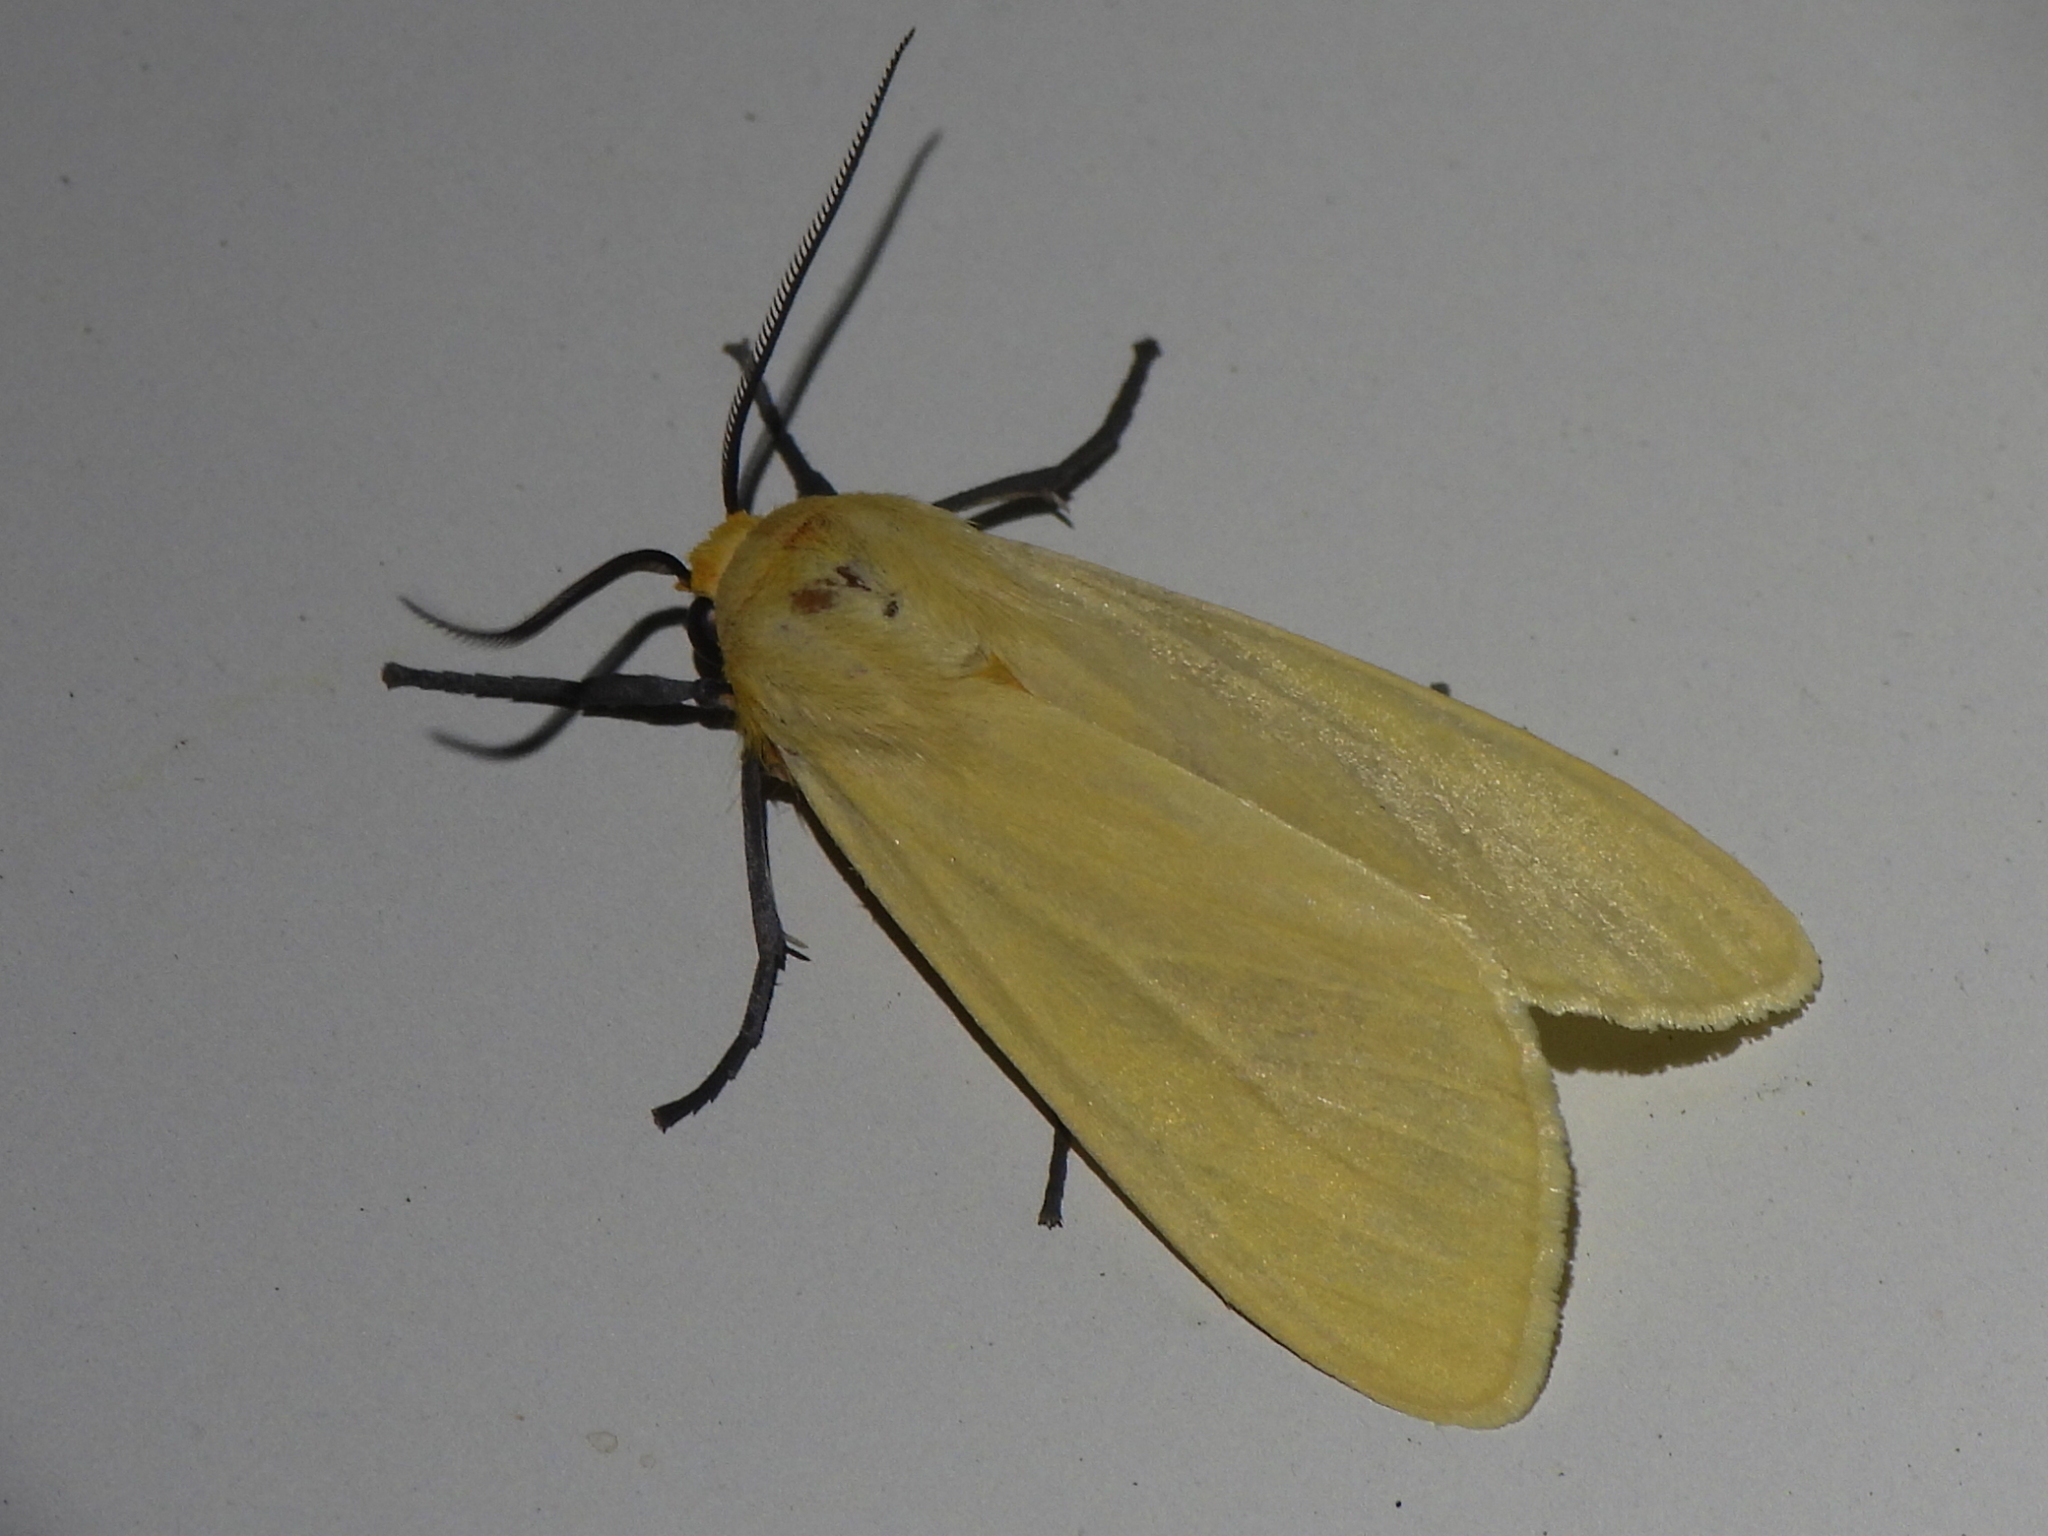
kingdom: Animalia
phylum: Arthropoda
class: Insecta
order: Lepidoptera
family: Erebidae
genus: Pareuchaetes
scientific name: Pareuchaetes insulata
